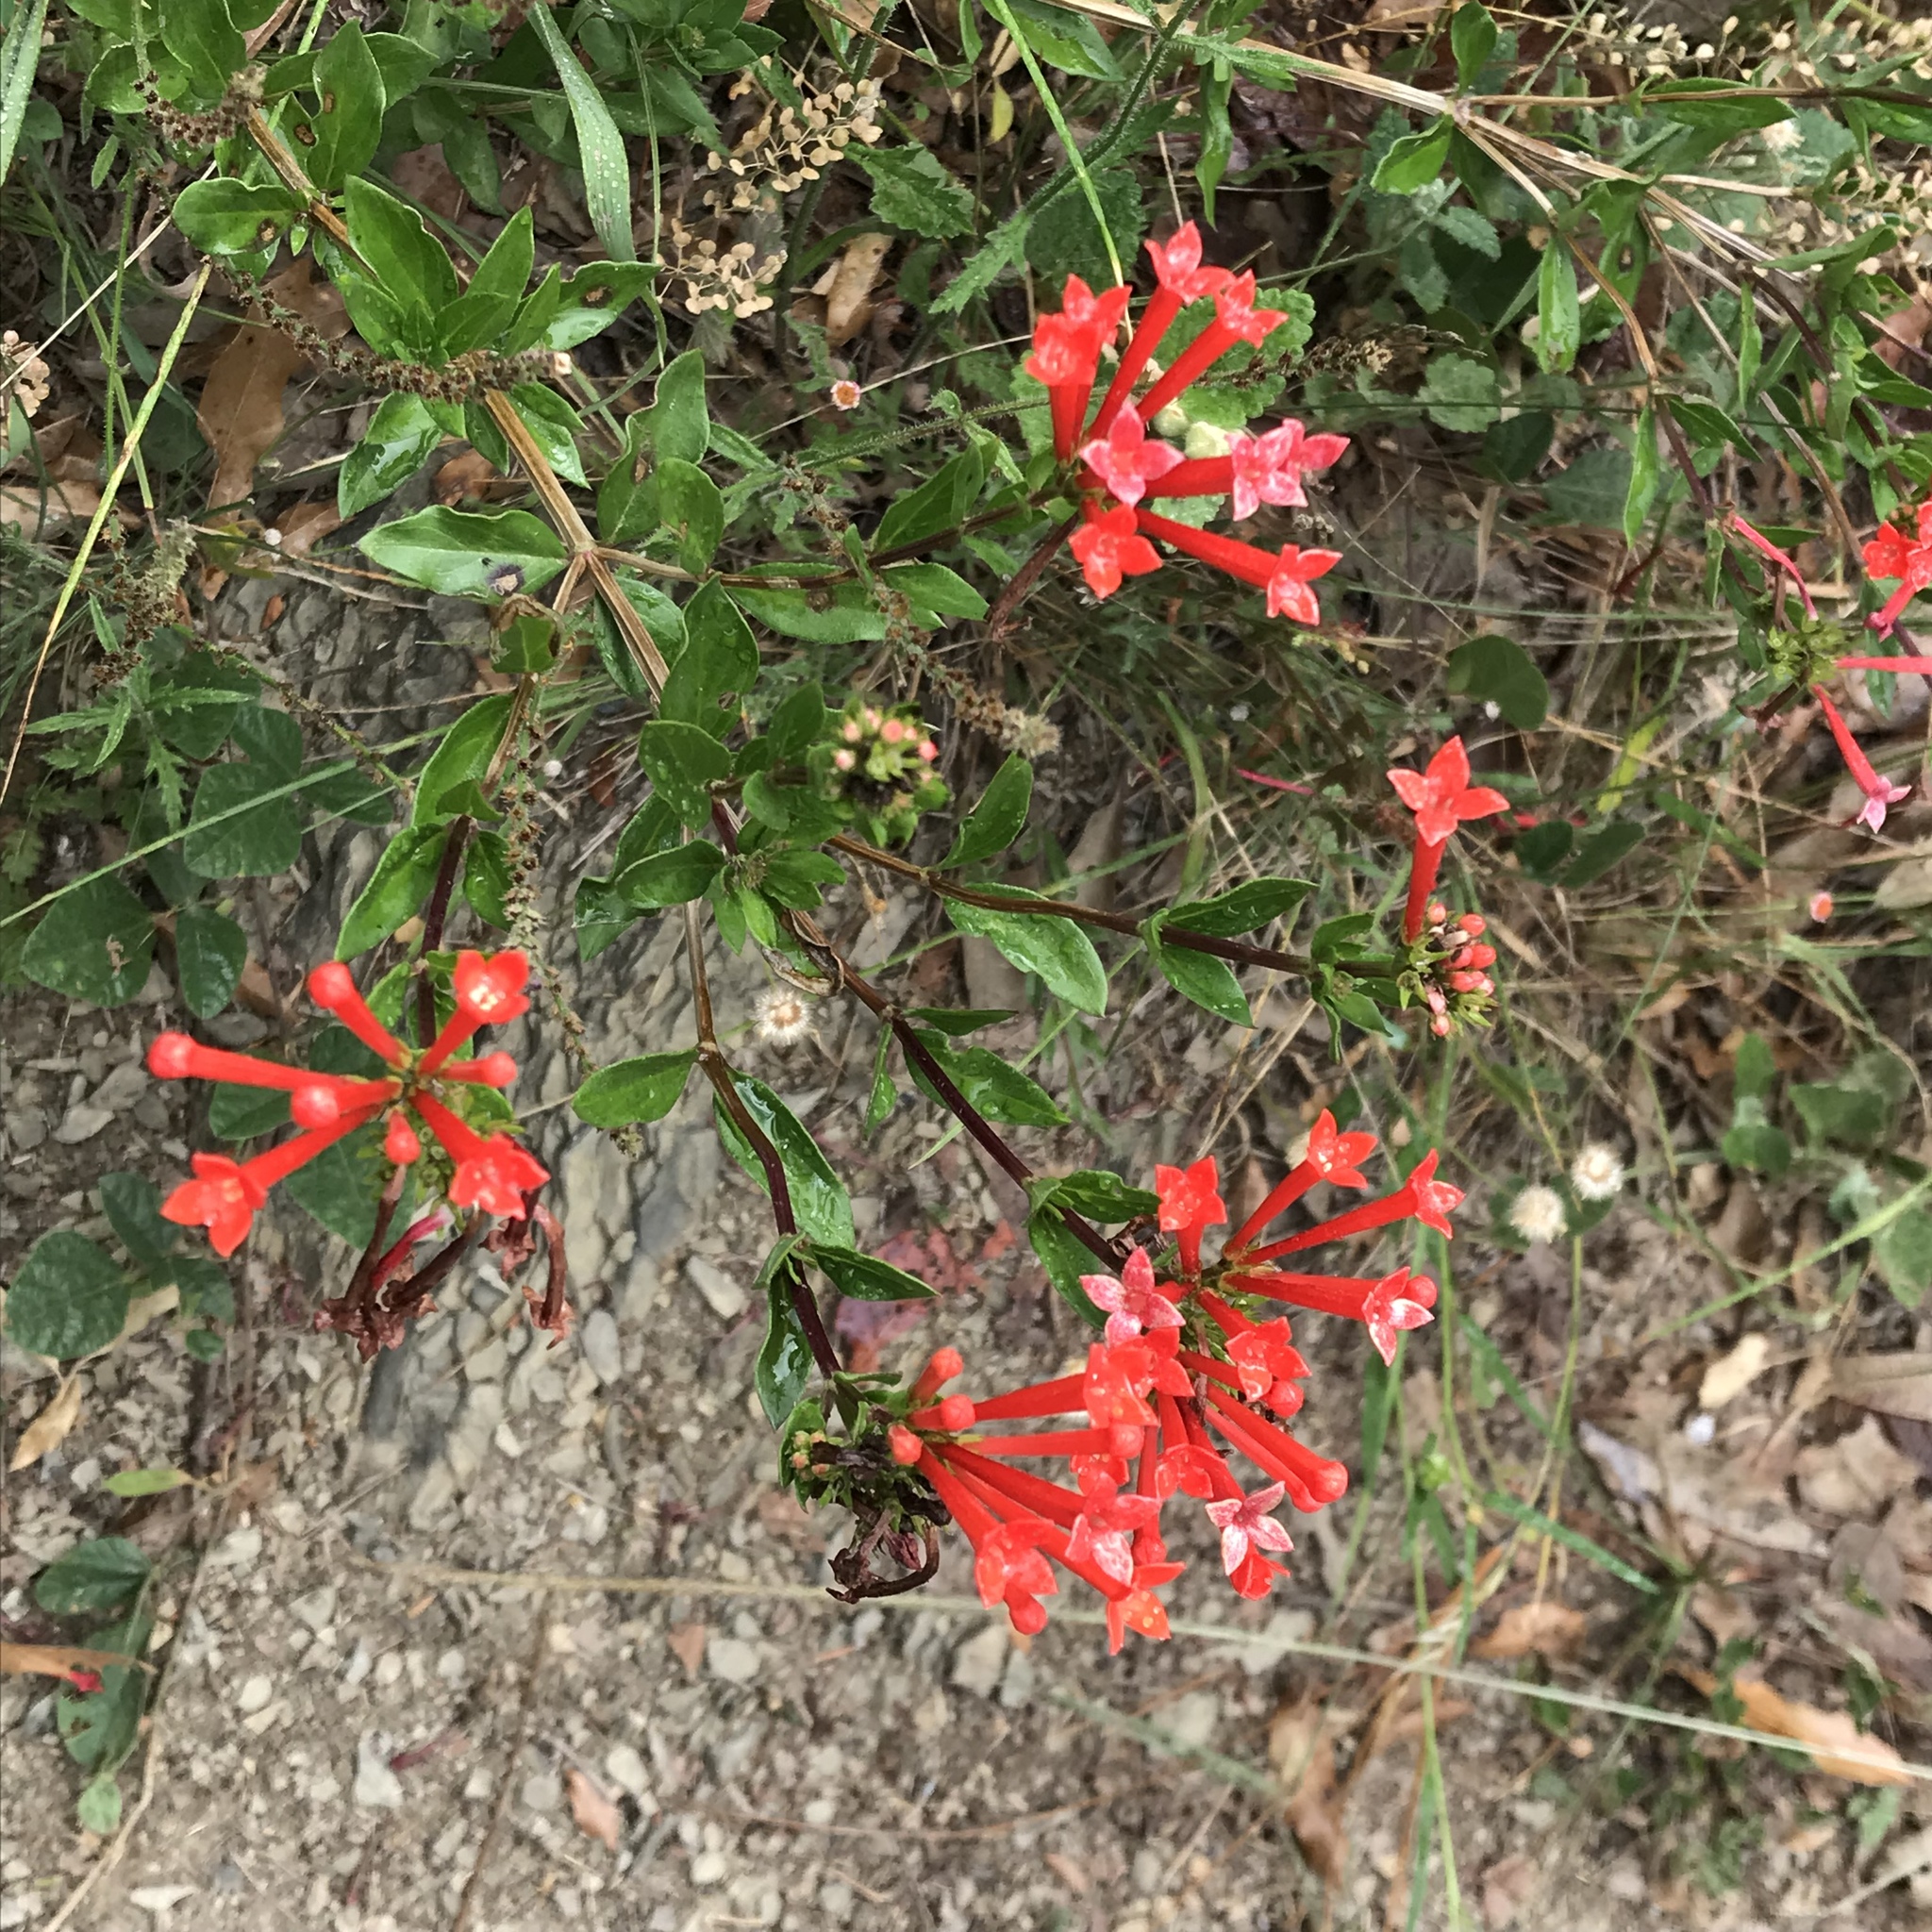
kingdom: Plantae
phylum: Tracheophyta
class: Magnoliopsida
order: Gentianales
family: Rubiaceae
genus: Bouvardia
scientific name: Bouvardia ternifolia
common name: Scarlet bouvardia
